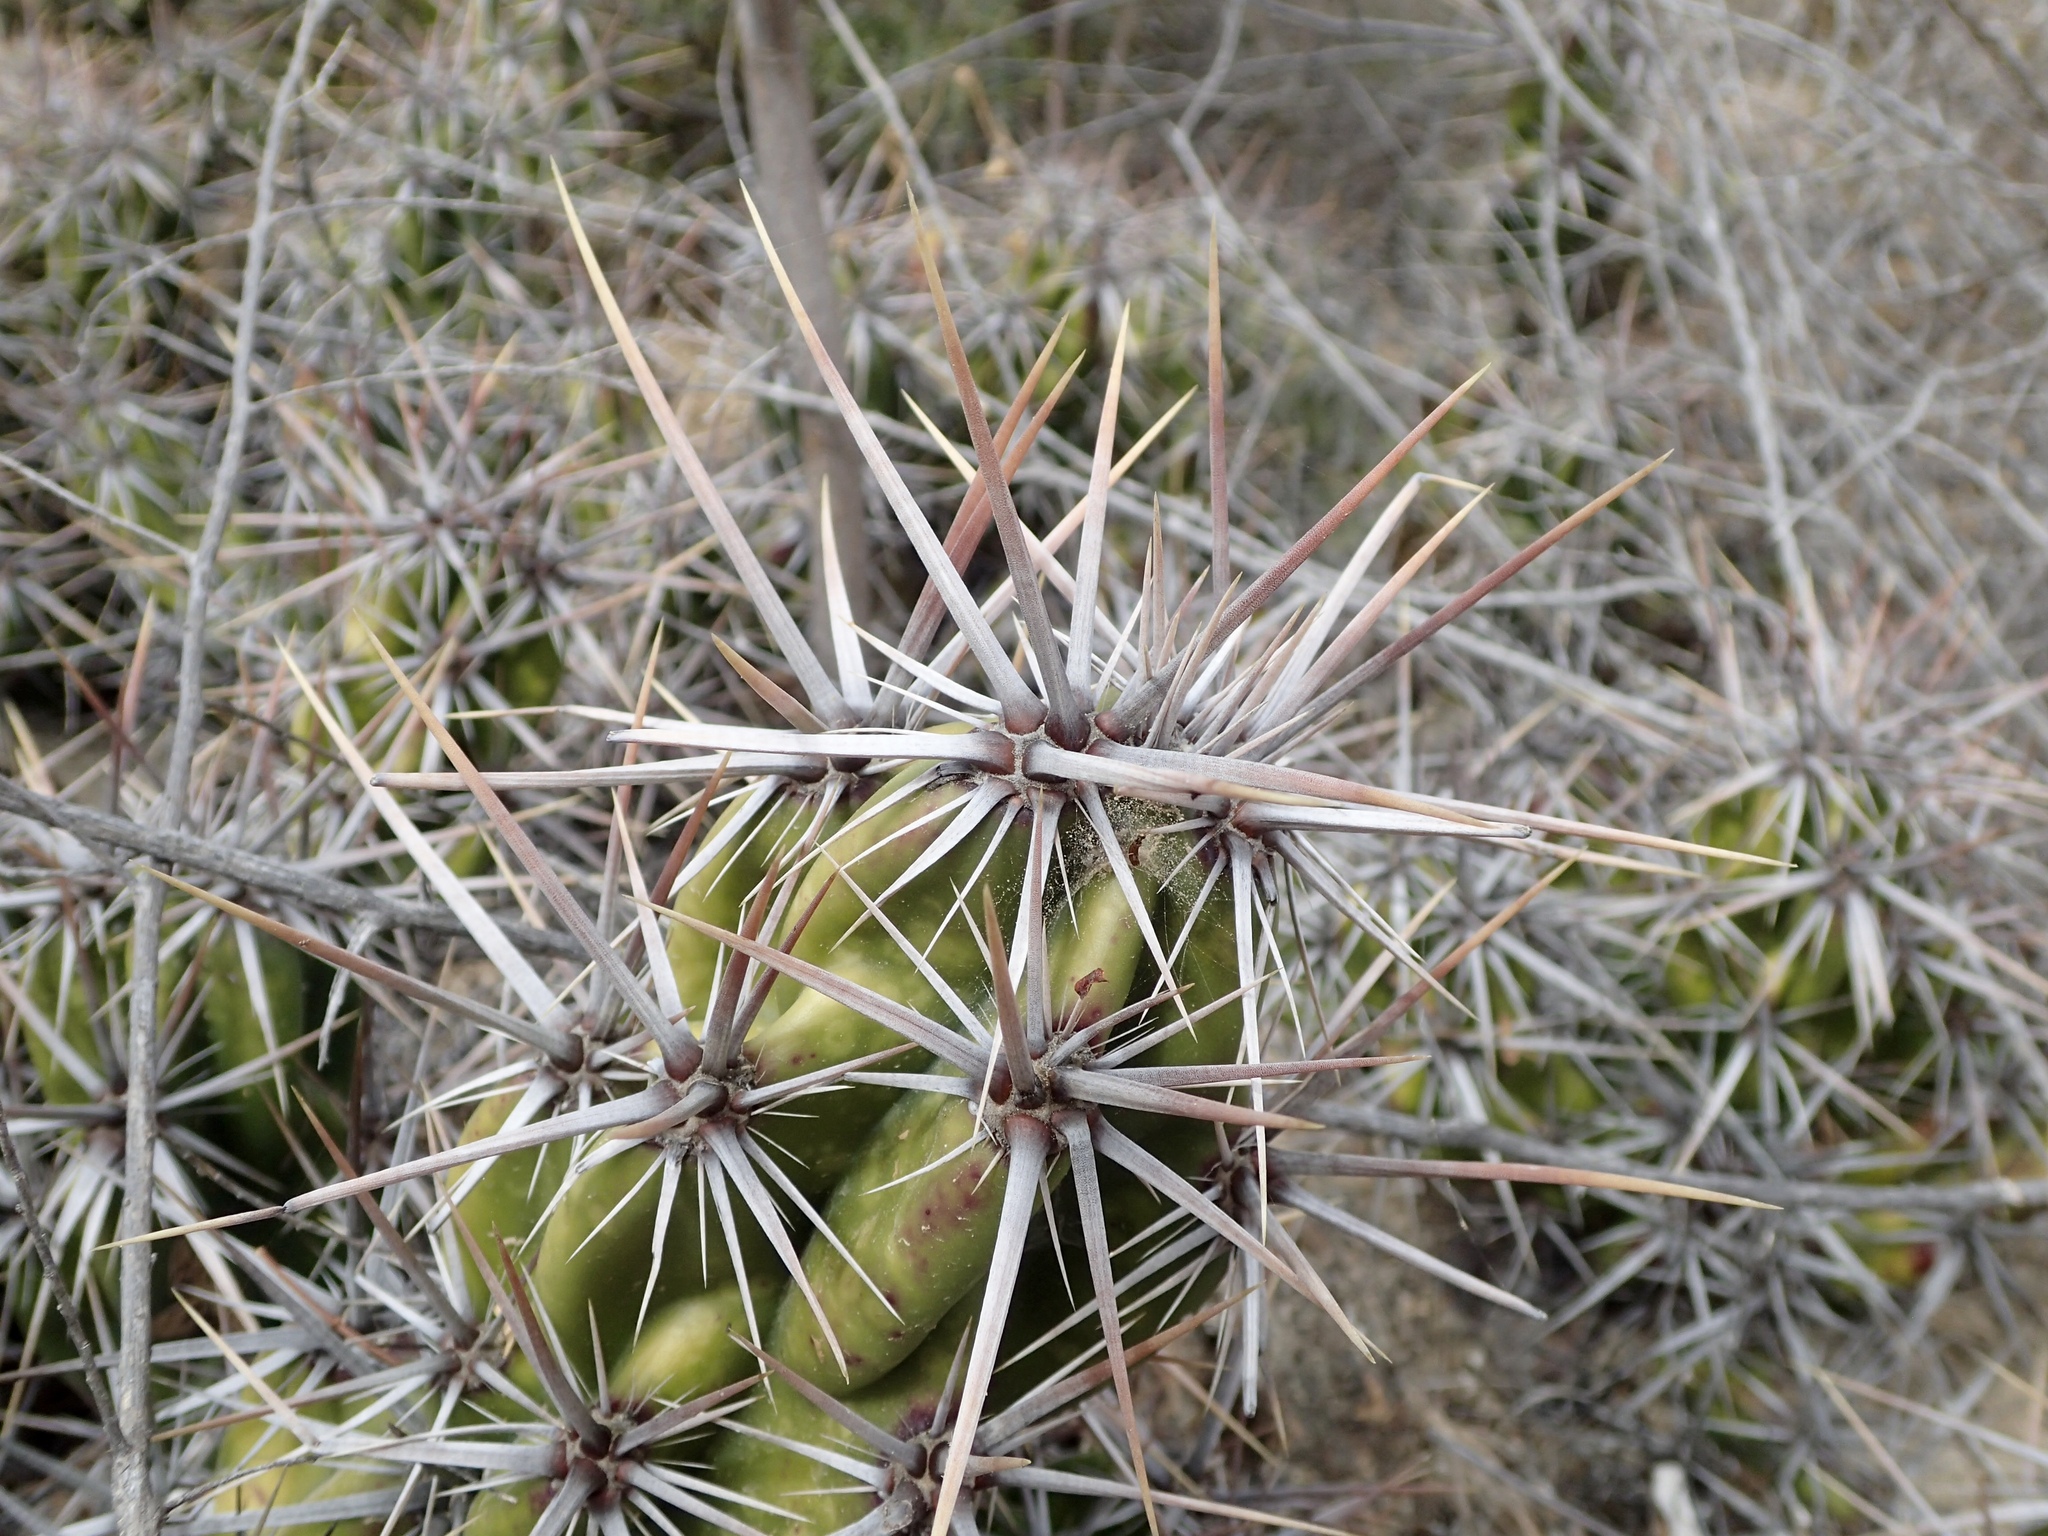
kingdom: Plantae
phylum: Tracheophyta
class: Magnoliopsida
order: Caryophyllales
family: Cactaceae
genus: Grusonia
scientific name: Grusonia invicta
